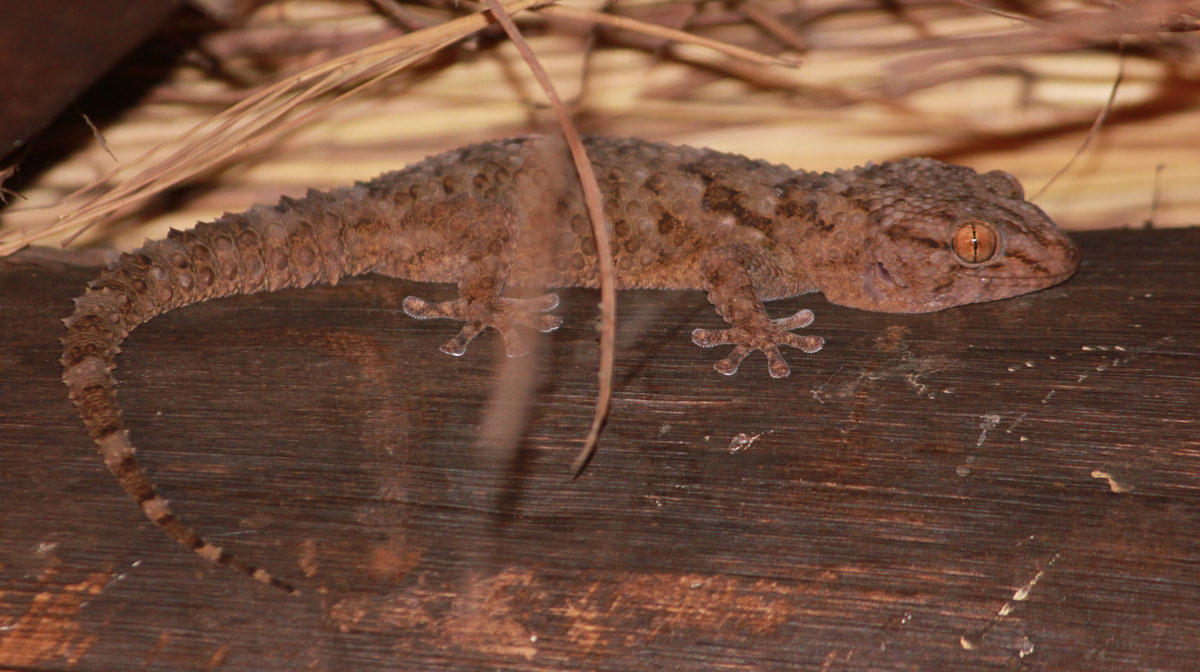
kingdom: Animalia
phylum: Chordata
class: Squamata
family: Gekkonidae
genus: Chondrodactylus
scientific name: Chondrodactylus turneri
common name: Turner’s gecko
